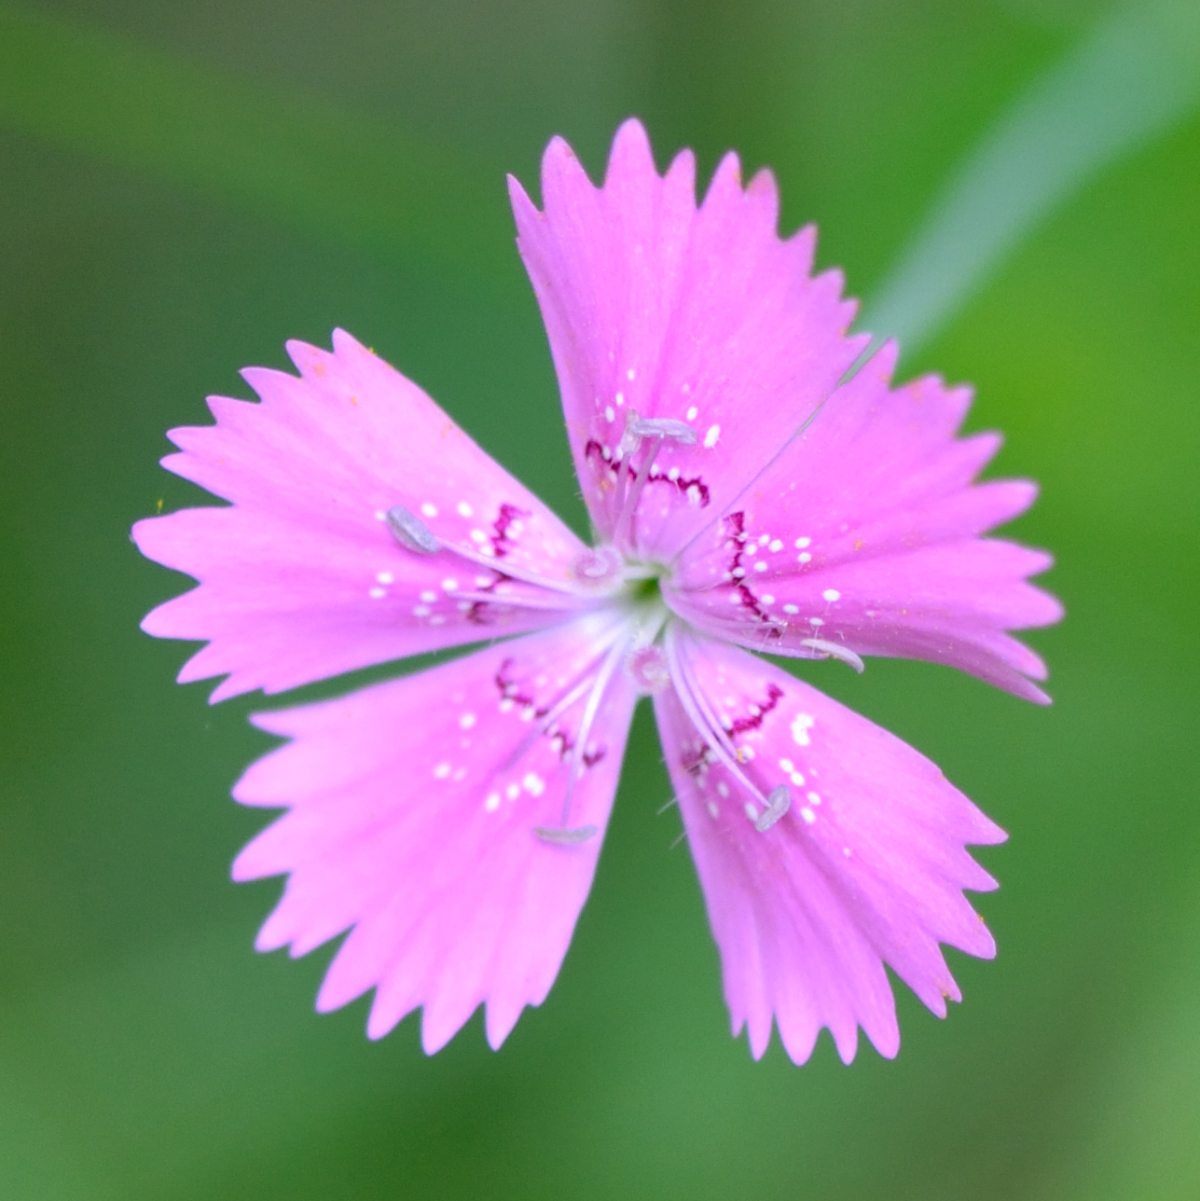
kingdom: Plantae
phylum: Tracheophyta
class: Magnoliopsida
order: Caryophyllales
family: Caryophyllaceae
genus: Dianthus
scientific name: Dianthus deltoides
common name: Maiden pink
